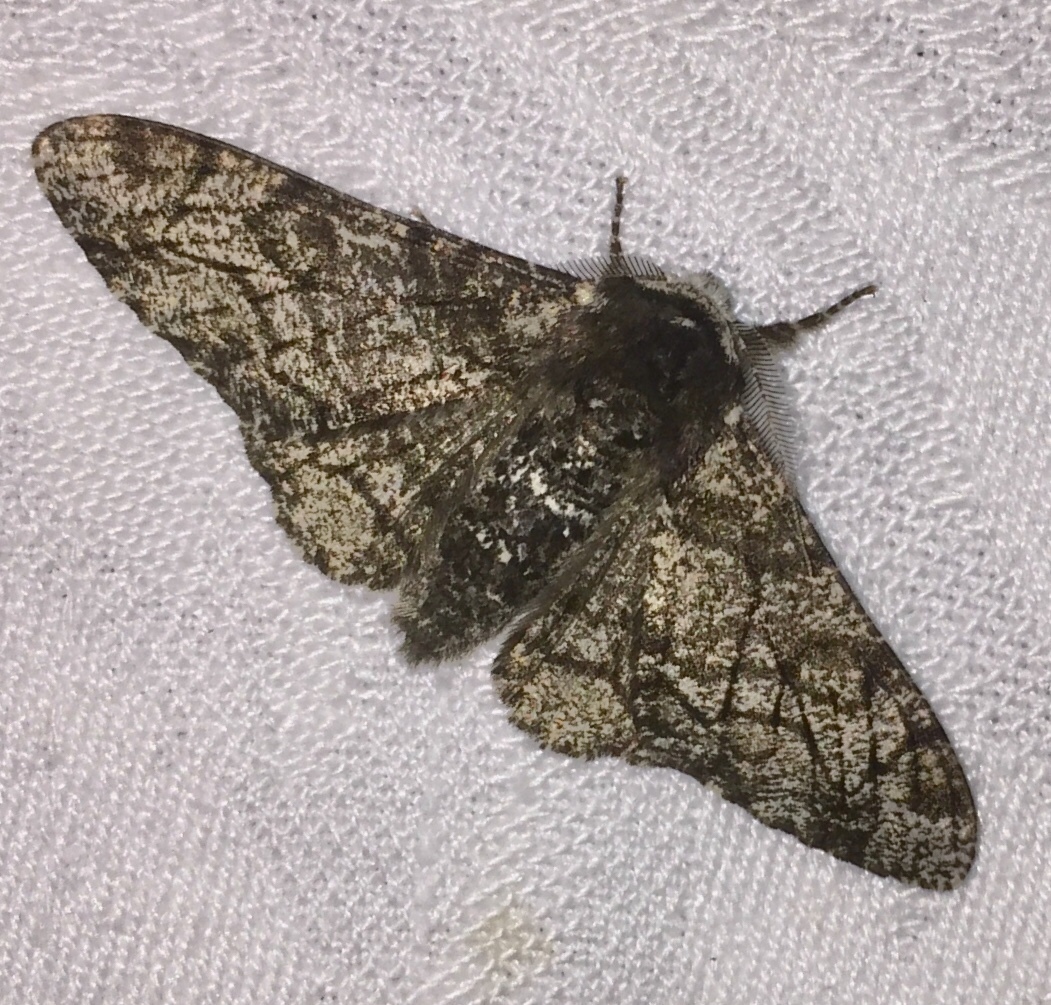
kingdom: Animalia
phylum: Arthropoda
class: Insecta
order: Lepidoptera
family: Geometridae
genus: Biston
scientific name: Biston betularia
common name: Peppered moth
